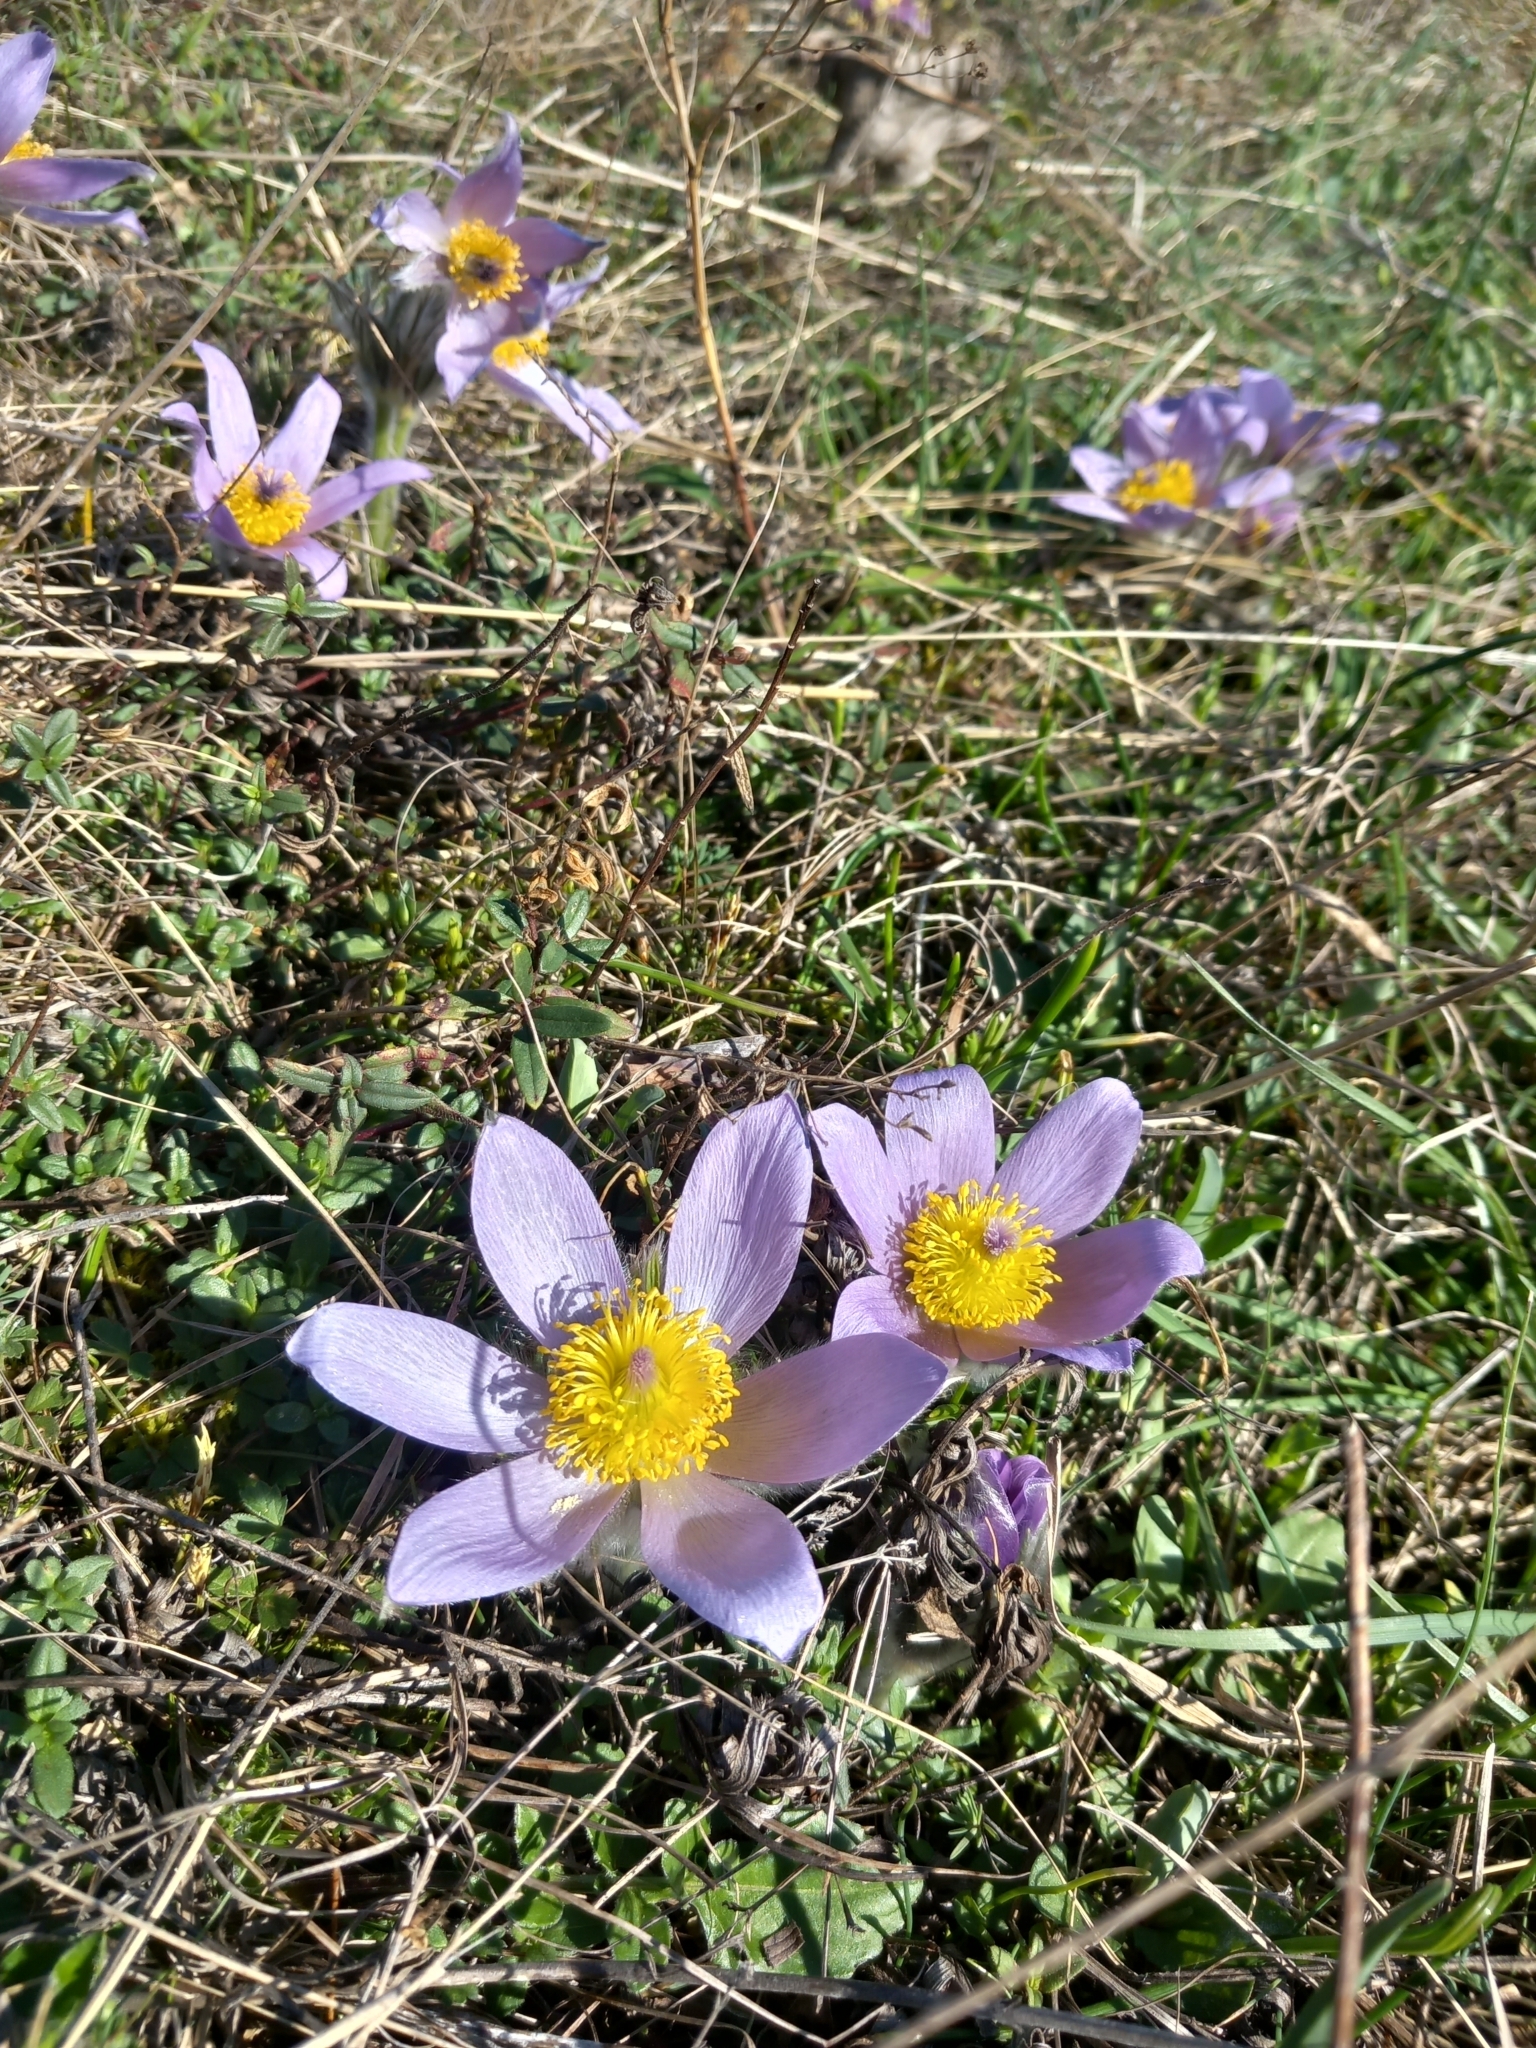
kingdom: Plantae
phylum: Tracheophyta
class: Magnoliopsida
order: Ranunculales
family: Ranunculaceae
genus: Pulsatilla
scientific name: Pulsatilla grandis
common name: Greater pasque flower
